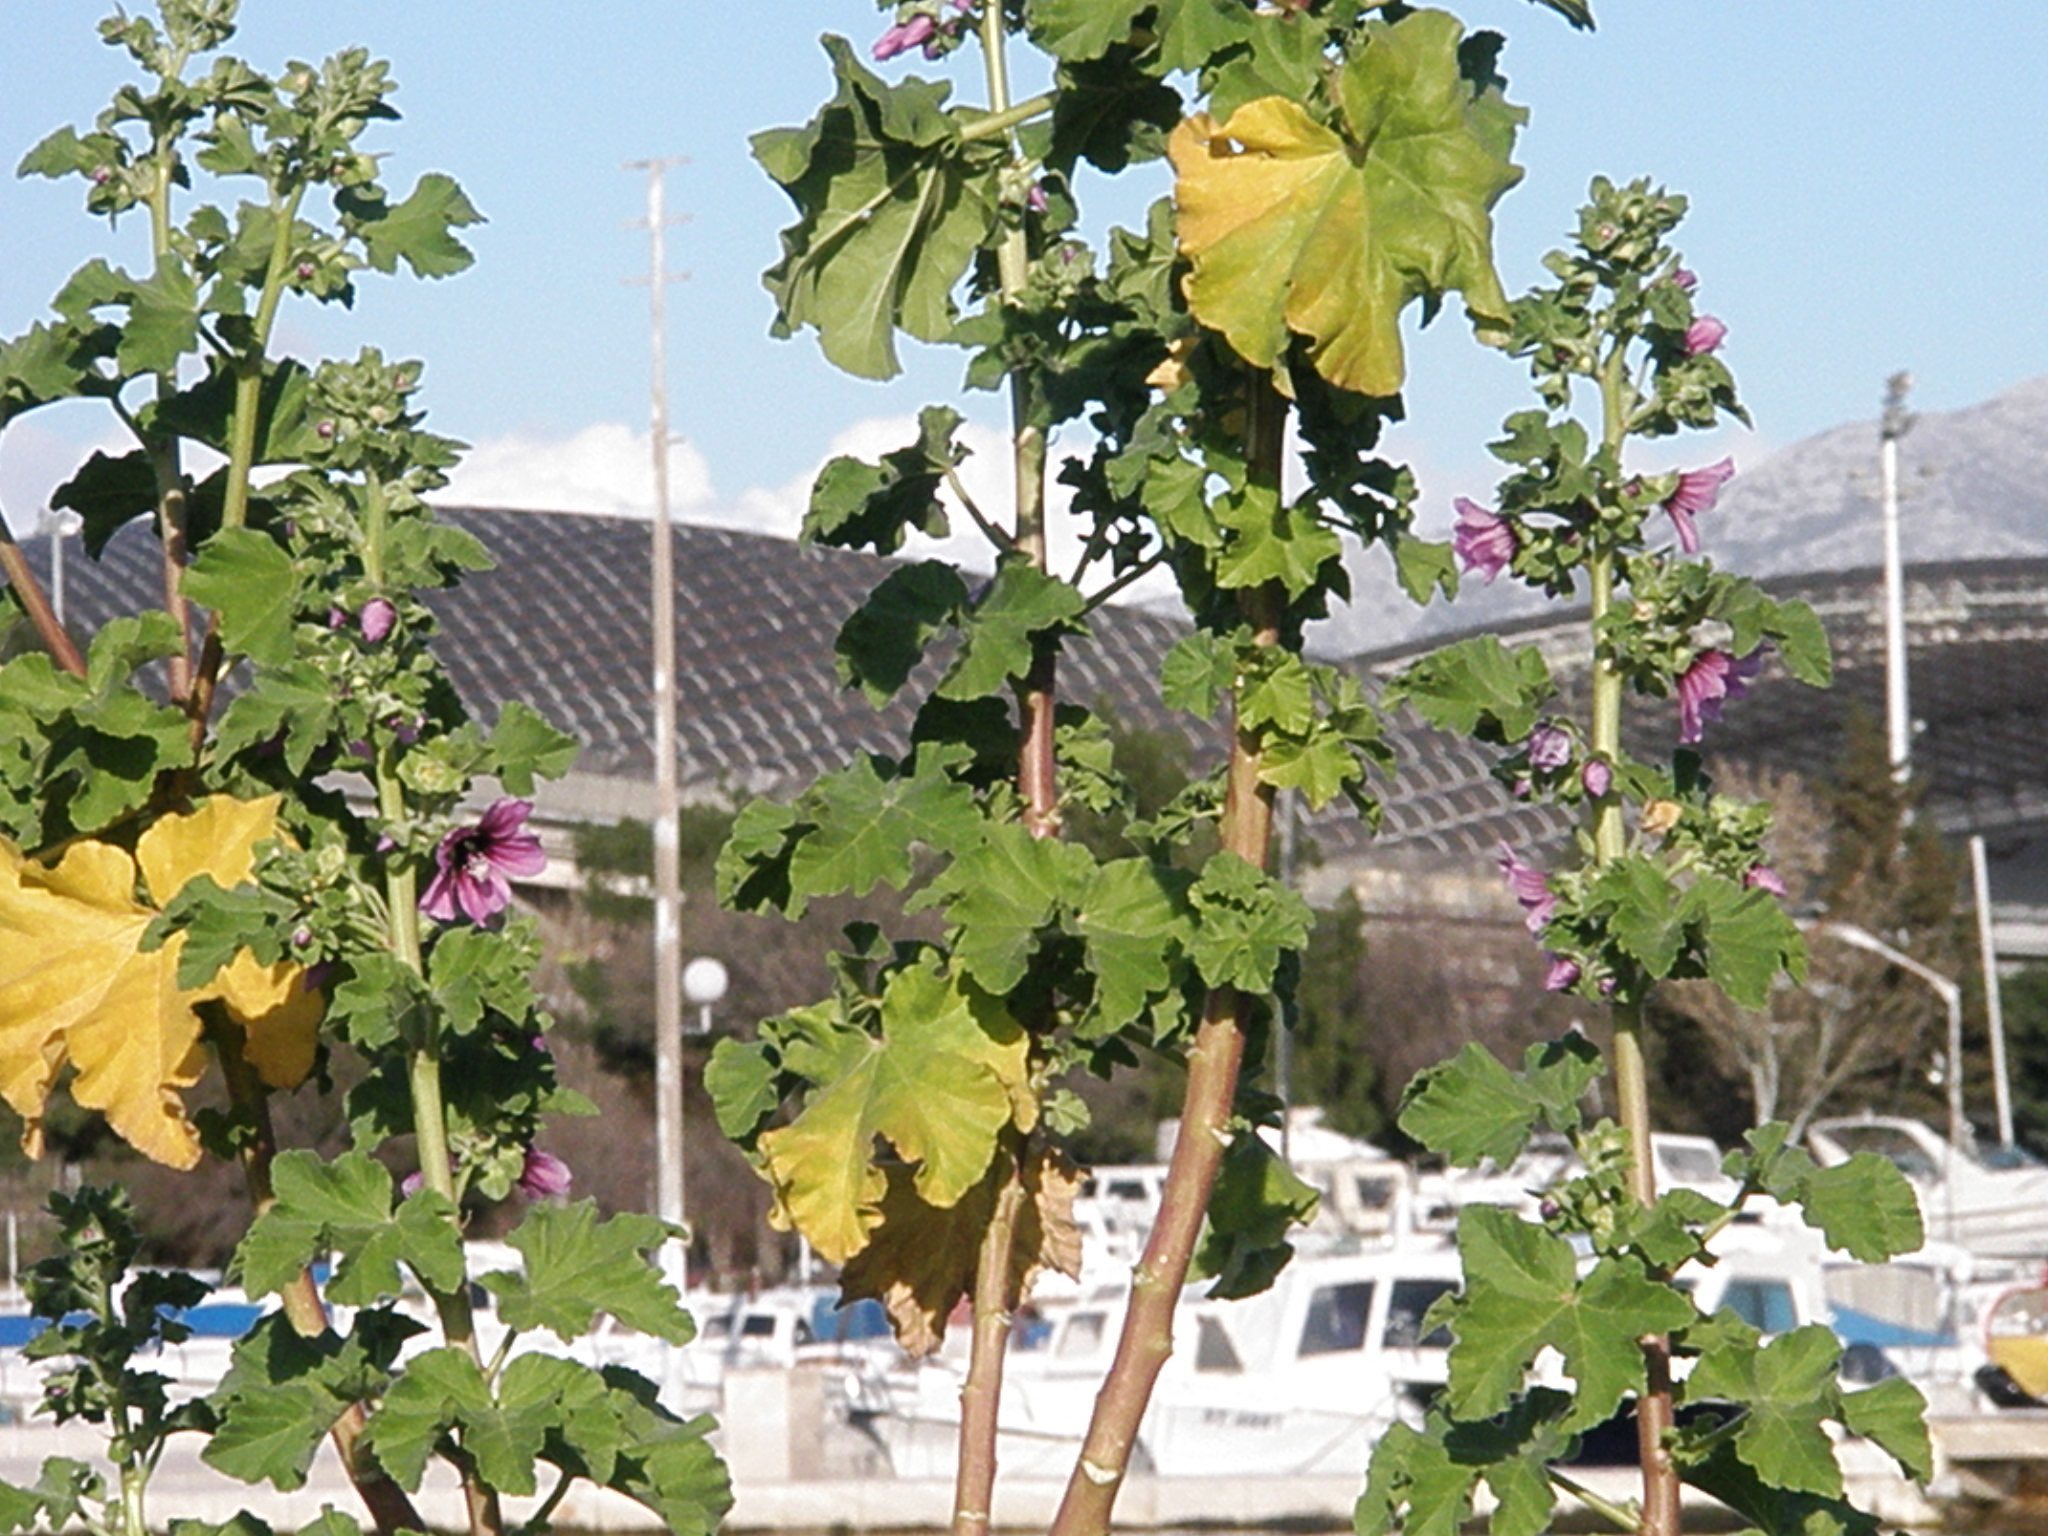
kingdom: Plantae
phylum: Tracheophyta
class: Magnoliopsida
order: Malvales
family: Malvaceae
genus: Malva
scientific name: Malva arborea
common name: Tree mallow
